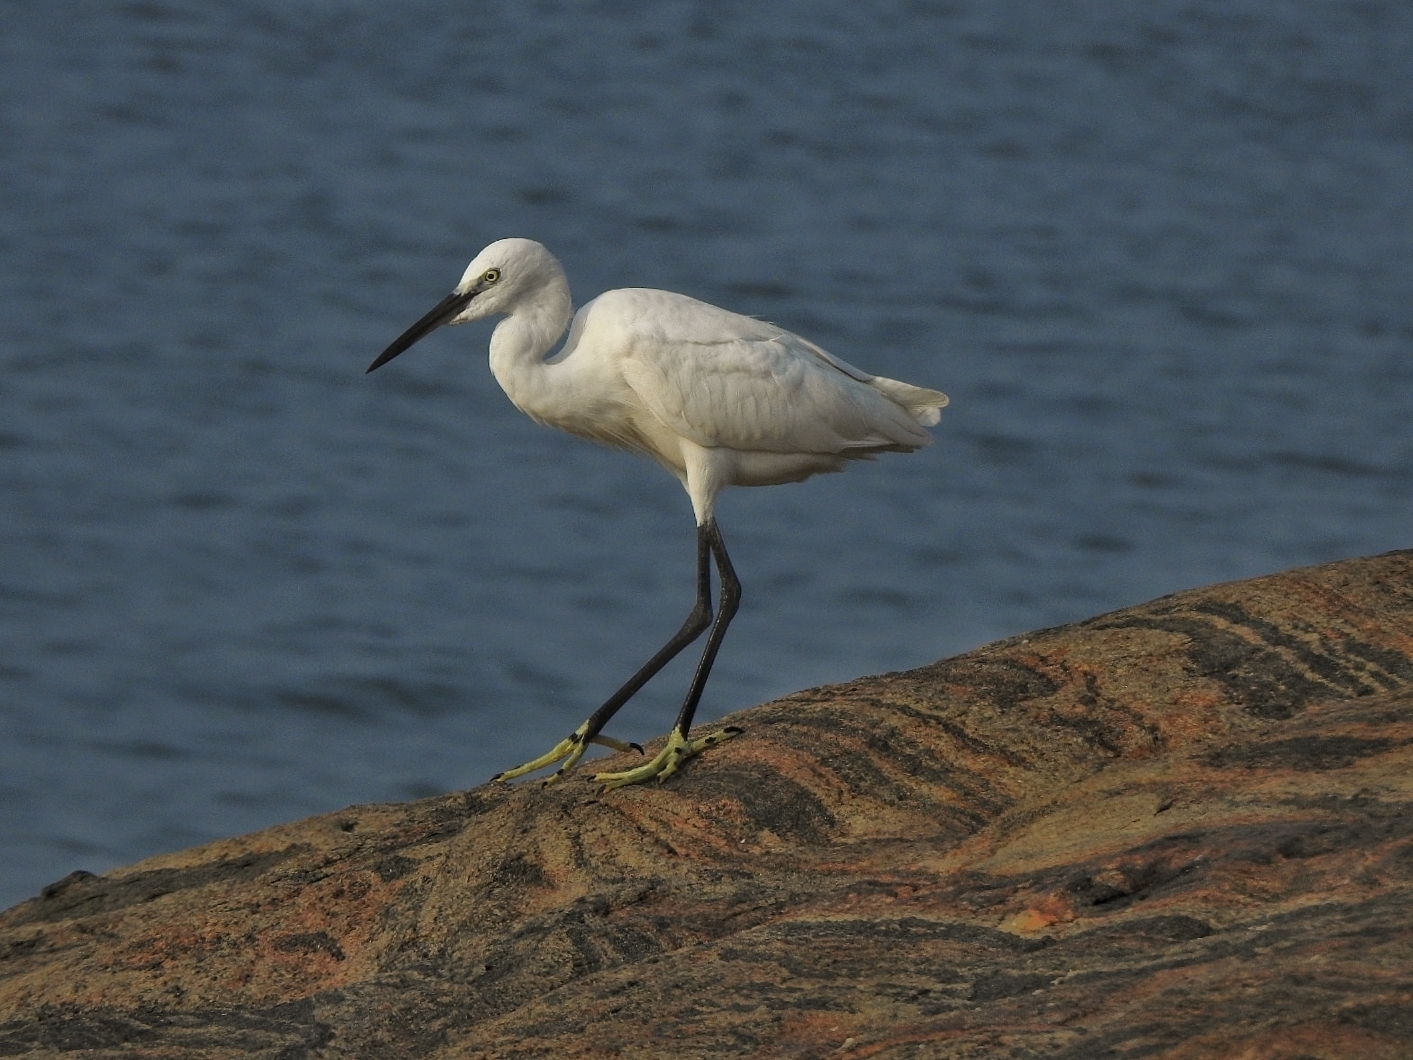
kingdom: Animalia
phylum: Chordata
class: Aves
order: Pelecaniformes
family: Ardeidae
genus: Egretta
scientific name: Egretta garzetta
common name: Little egret
